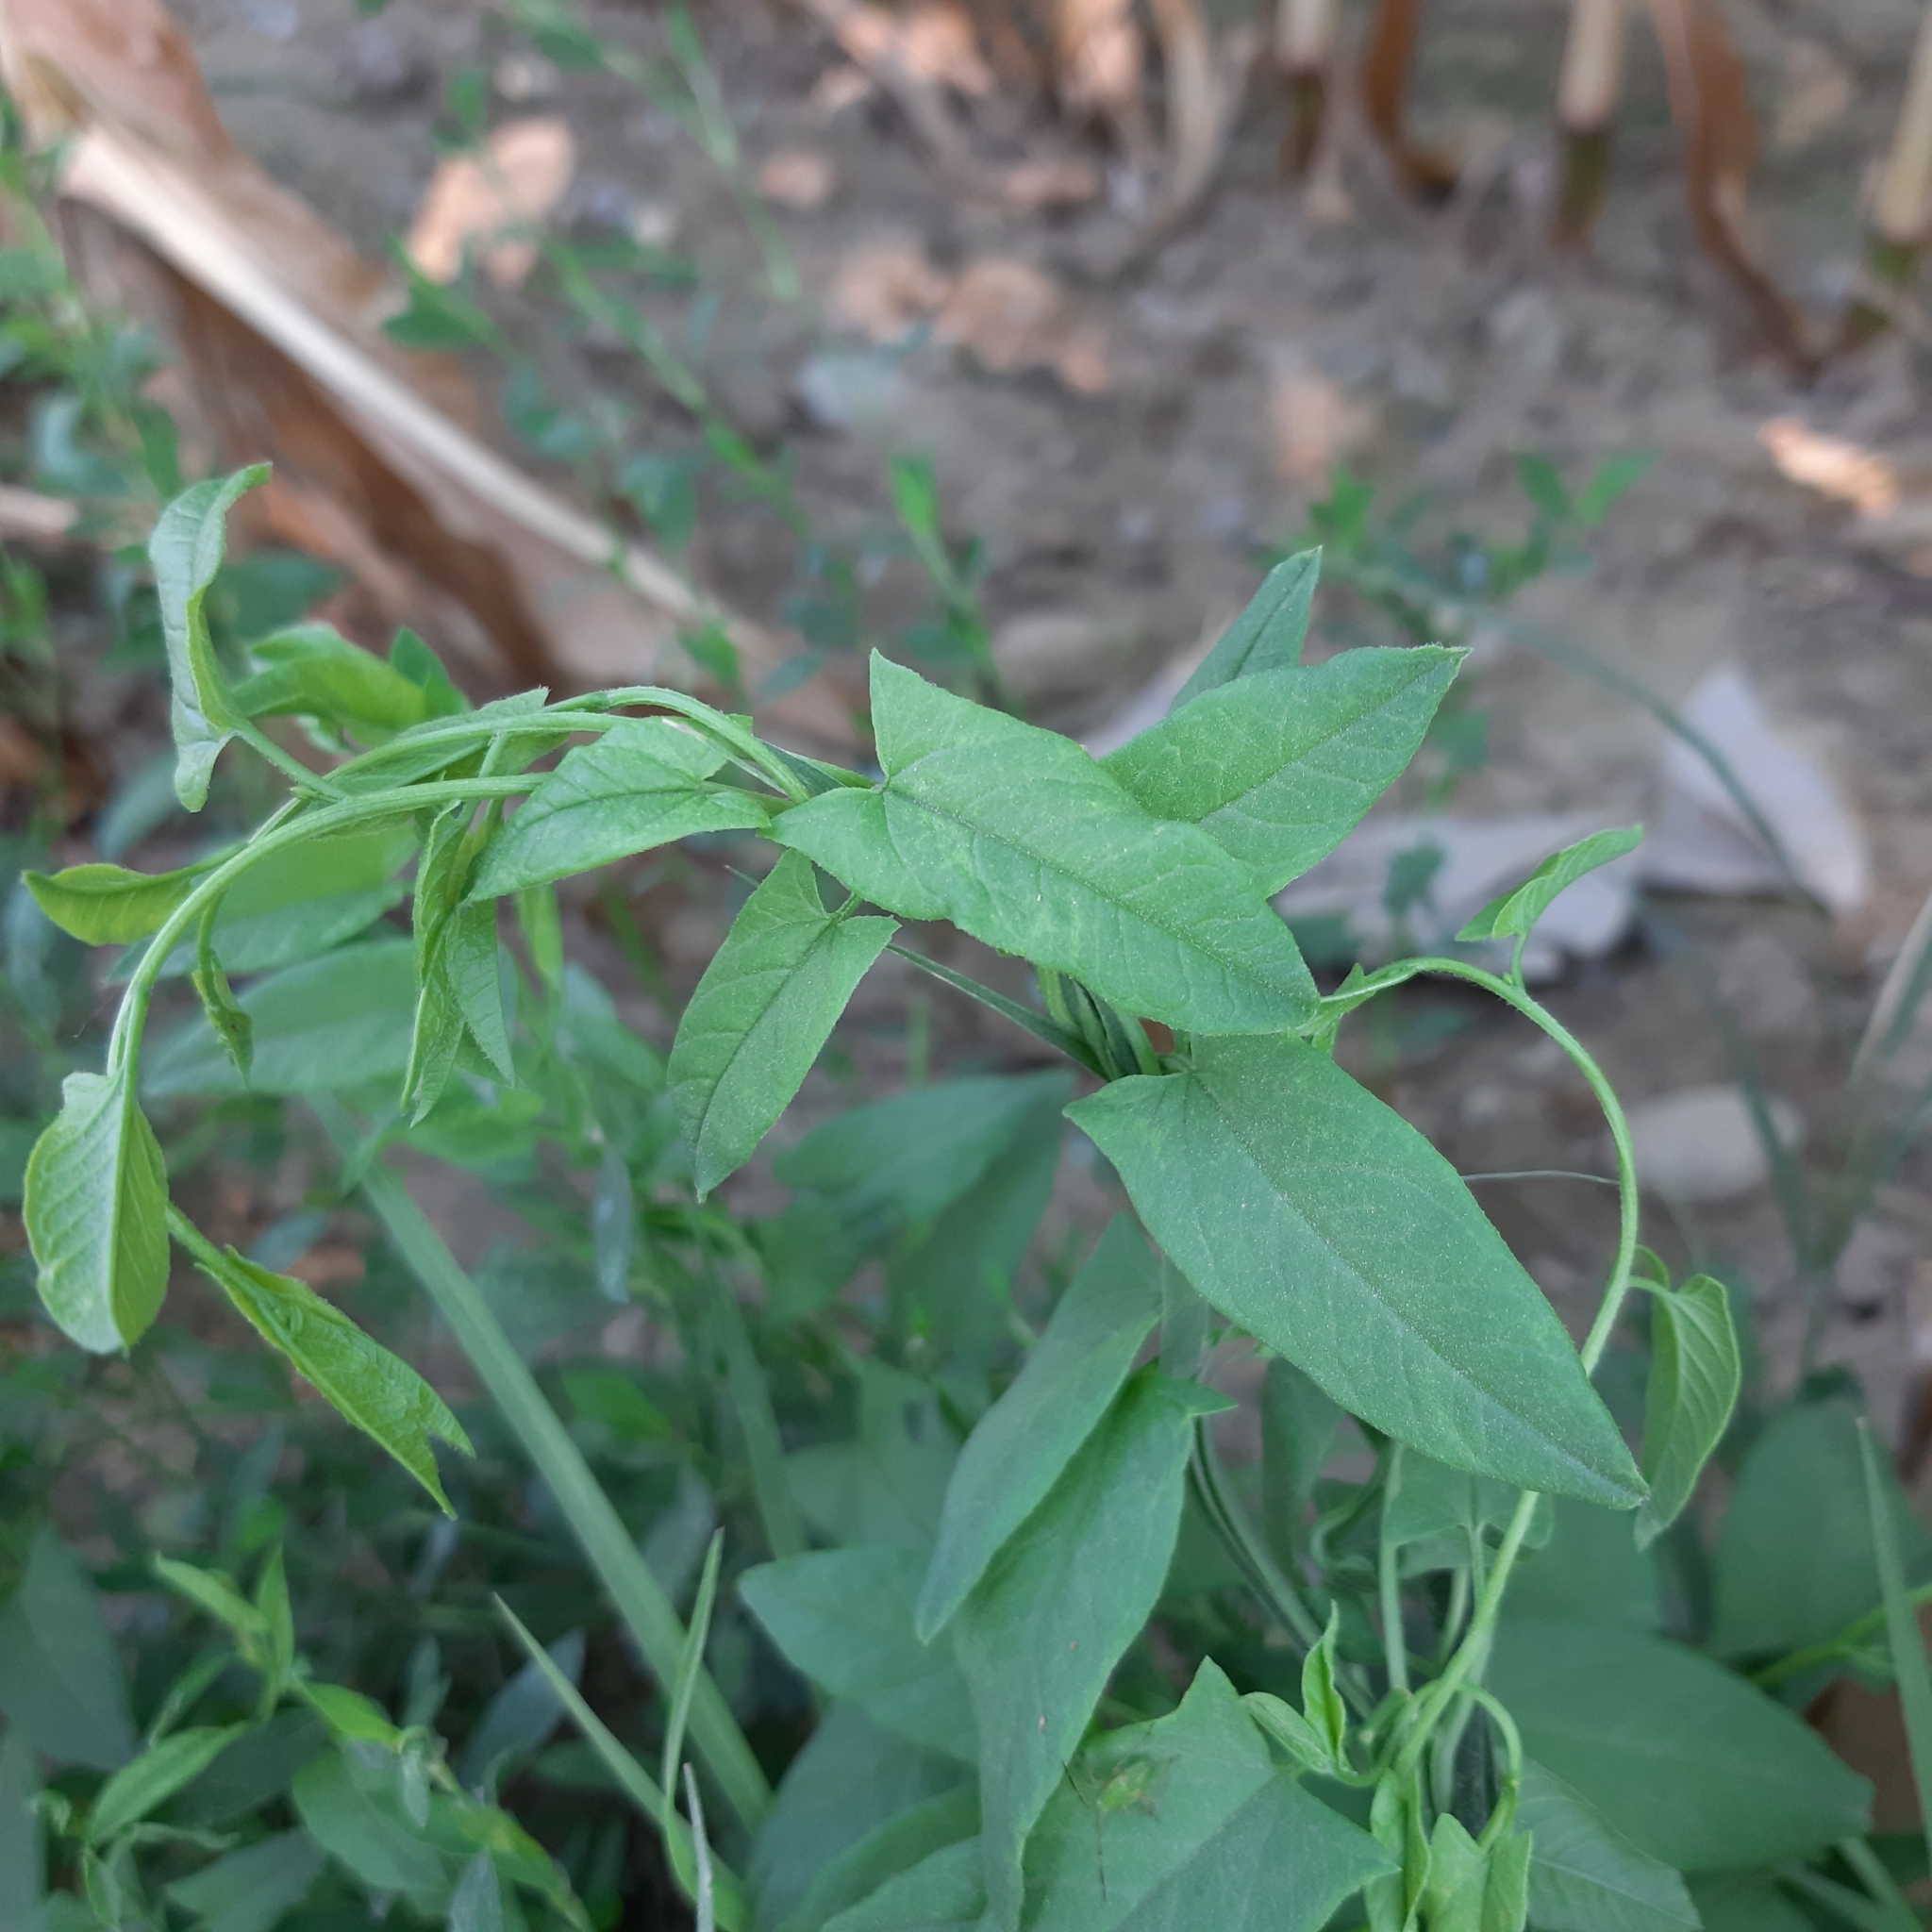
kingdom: Plantae
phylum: Tracheophyta
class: Magnoliopsida
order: Solanales
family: Convolvulaceae
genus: Convolvulus
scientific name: Convolvulus arvensis
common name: Field bindweed
